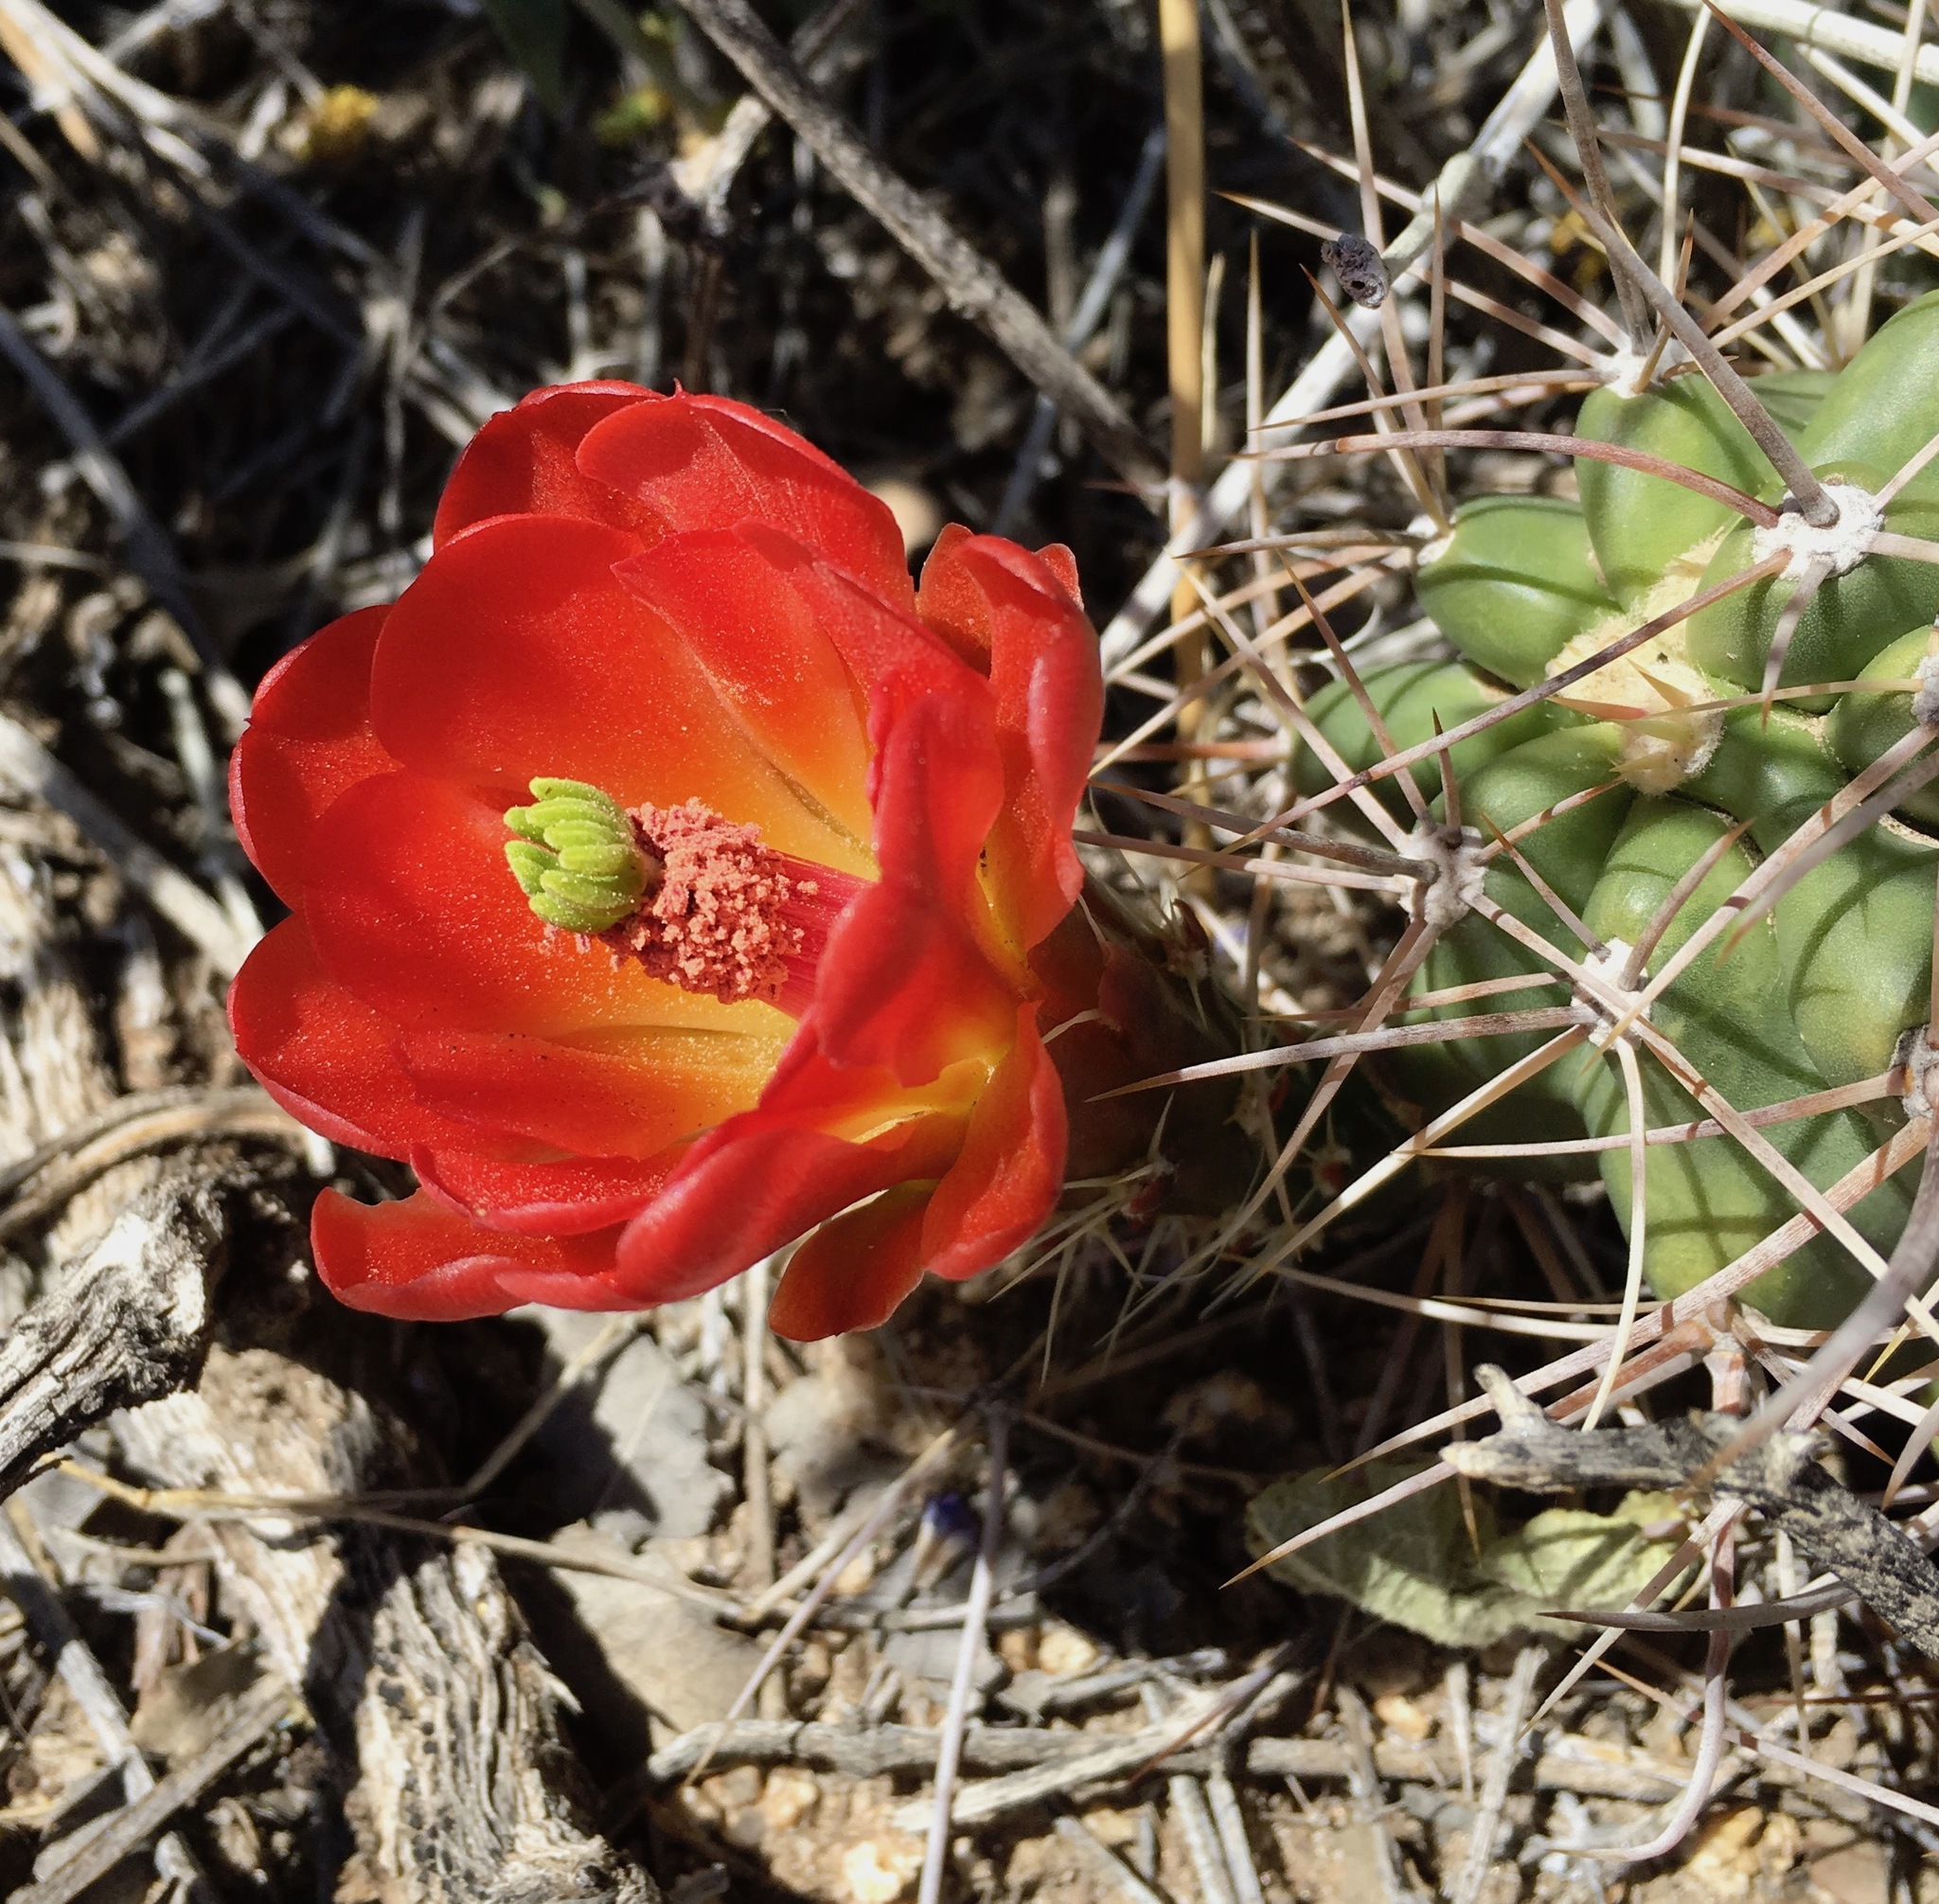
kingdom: Plantae
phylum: Tracheophyta
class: Magnoliopsida
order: Caryophyllales
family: Cactaceae
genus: Echinocereus
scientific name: Echinocereus triglochidiatus
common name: Claretcup hedgehog
